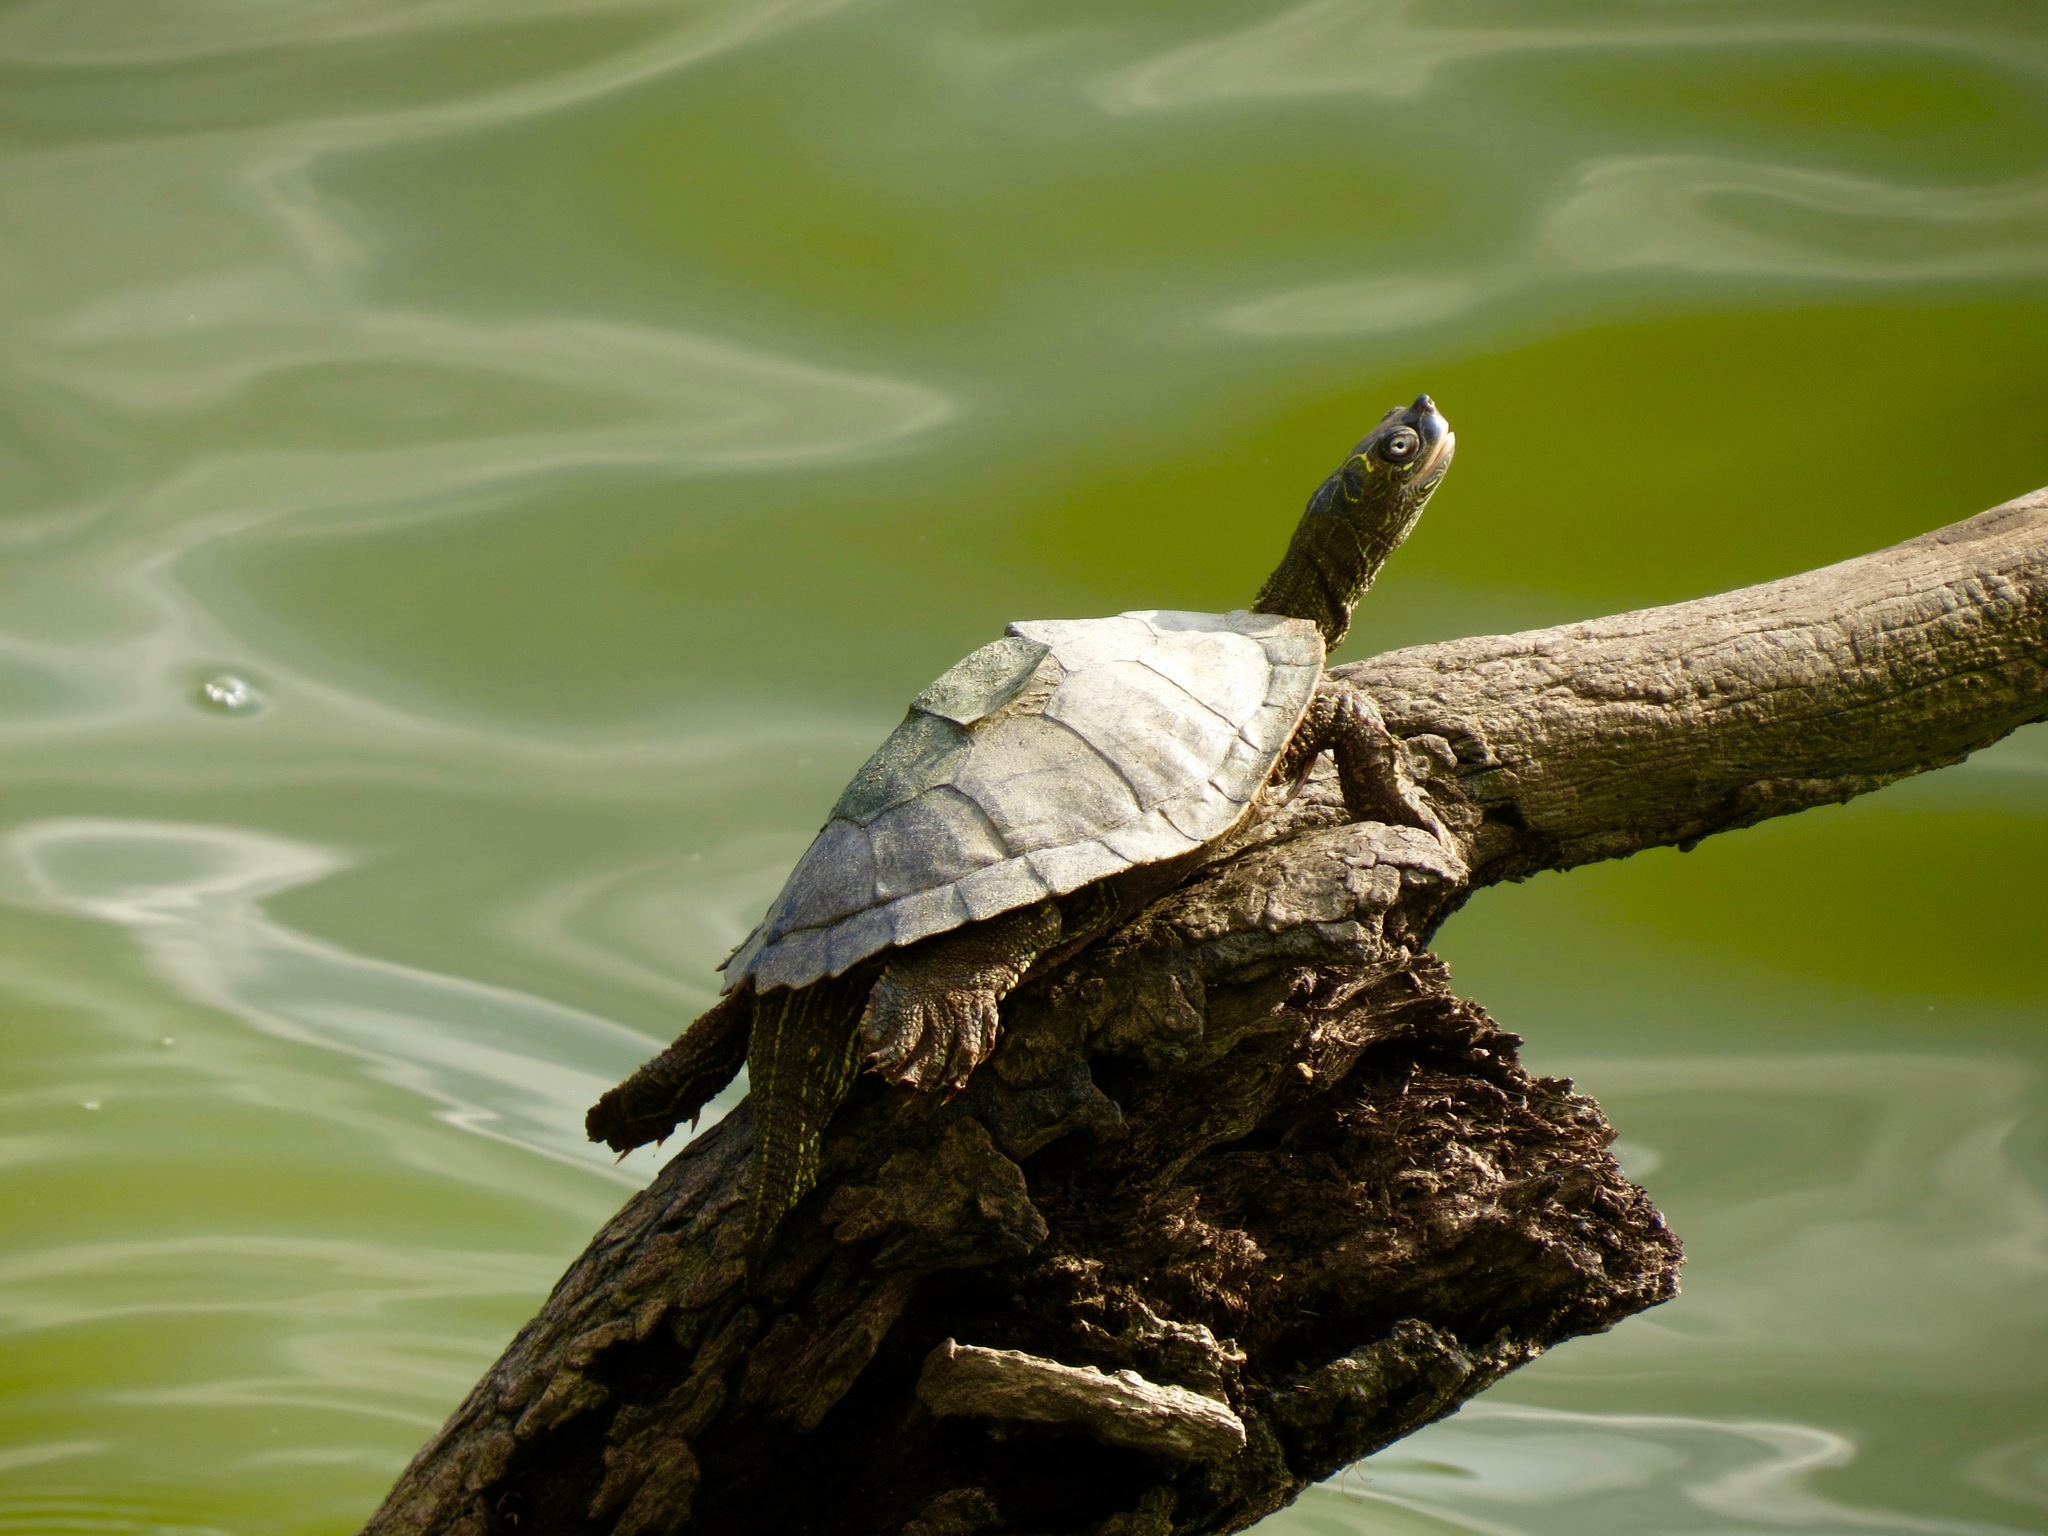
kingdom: Animalia
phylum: Chordata
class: Testudines
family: Emydidae
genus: Graptemys
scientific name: Graptemys pseudogeographica
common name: False map turtle
